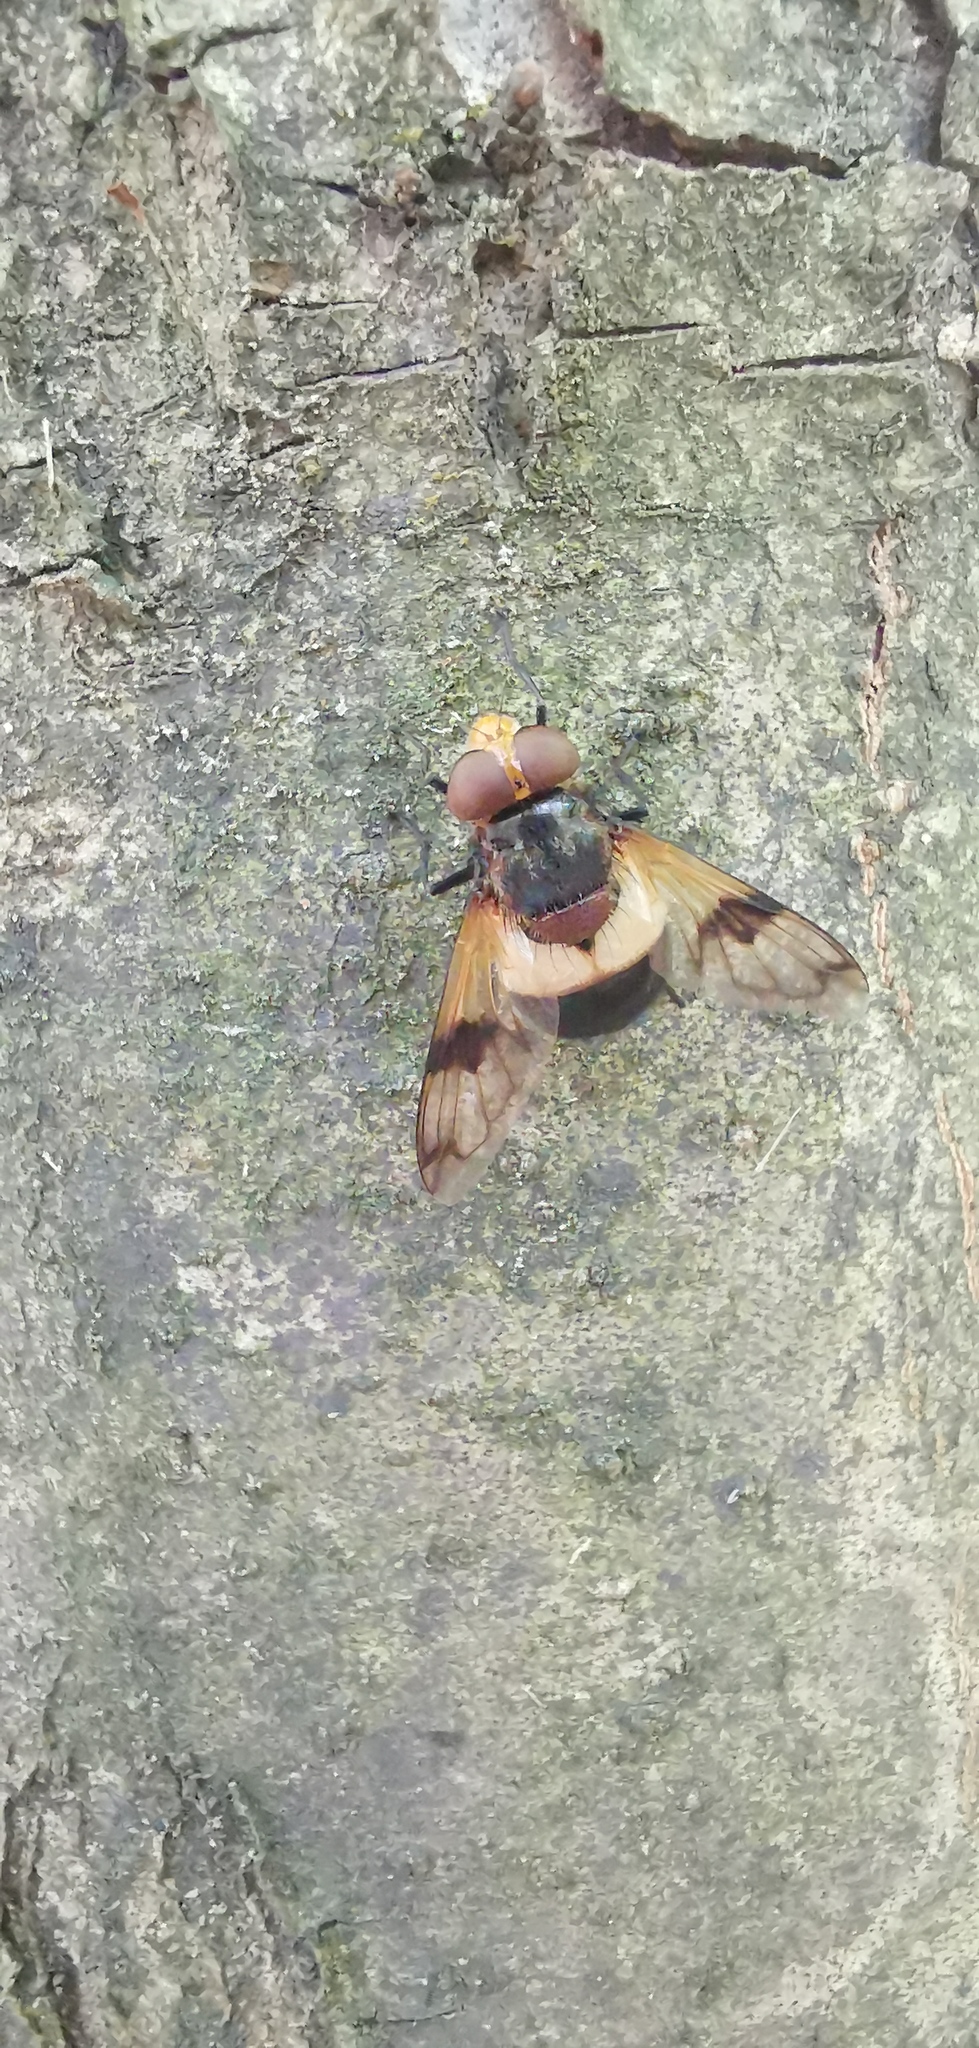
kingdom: Animalia
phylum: Arthropoda
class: Insecta
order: Diptera
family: Syrphidae
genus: Volucella
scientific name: Volucella pellucens
